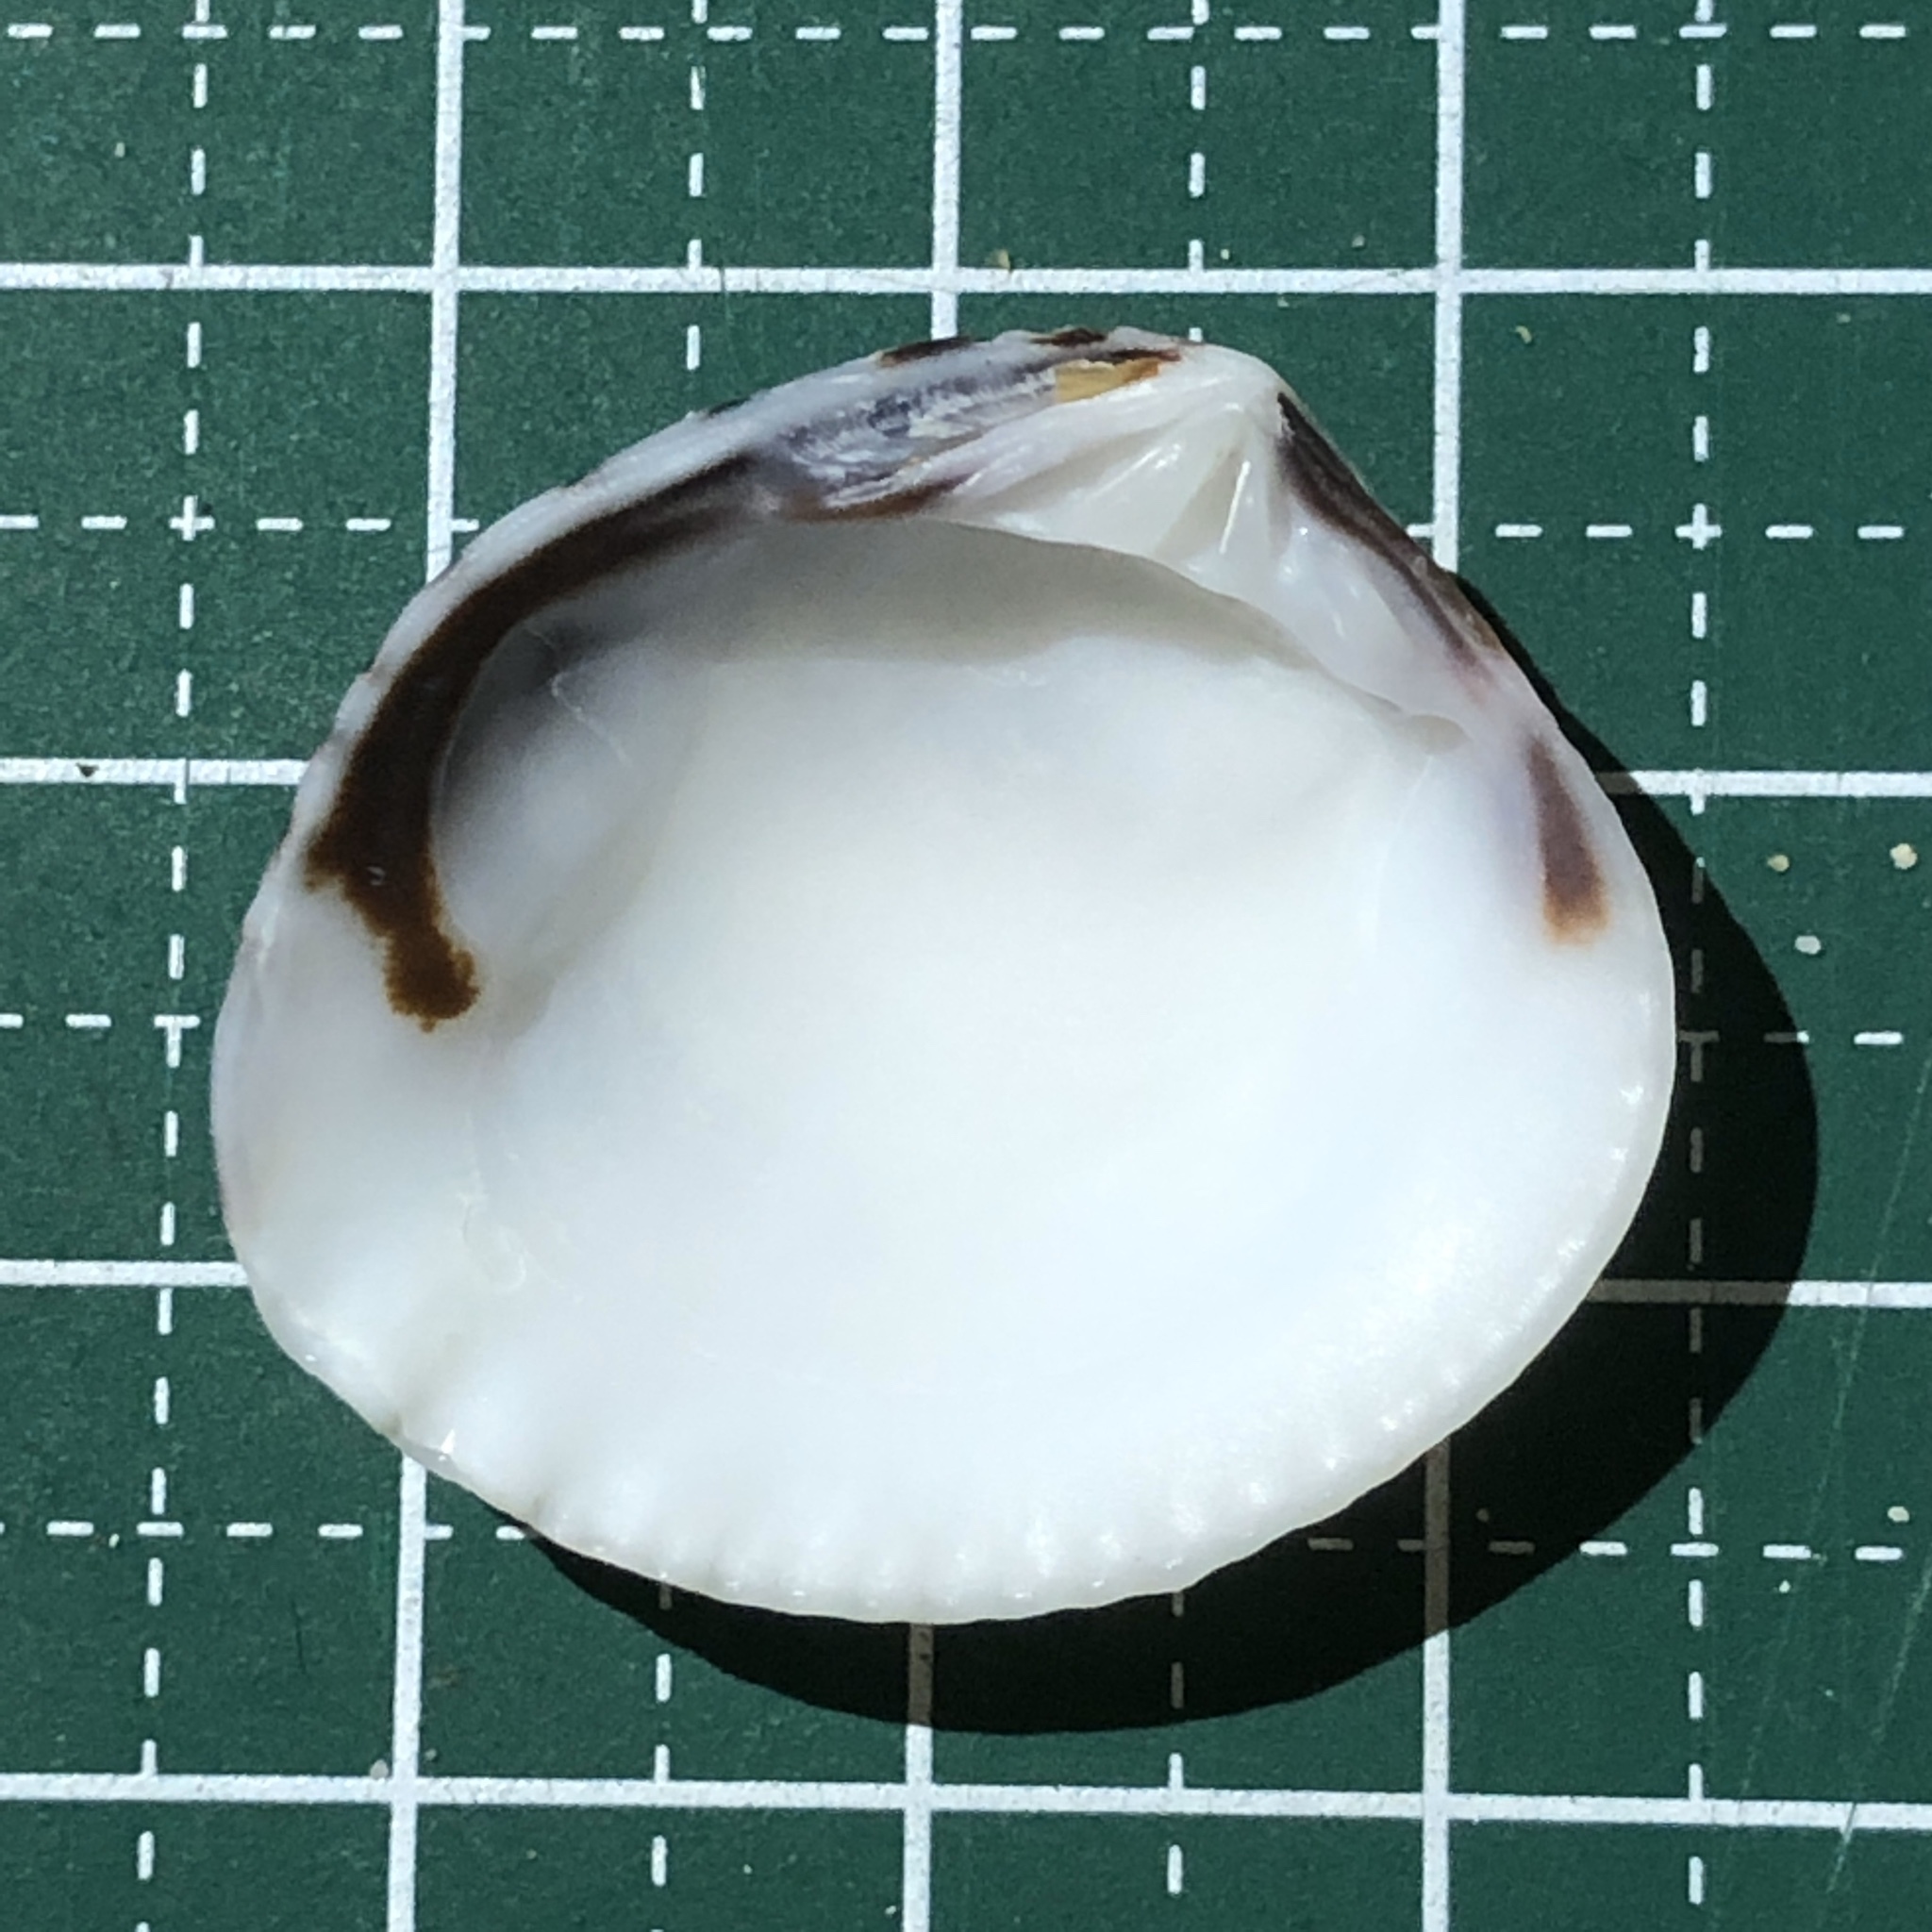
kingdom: Animalia
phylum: Mollusca
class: Bivalvia
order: Venerida
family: Veneridae
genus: Gafrarium
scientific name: Gafrarium pectinatum
